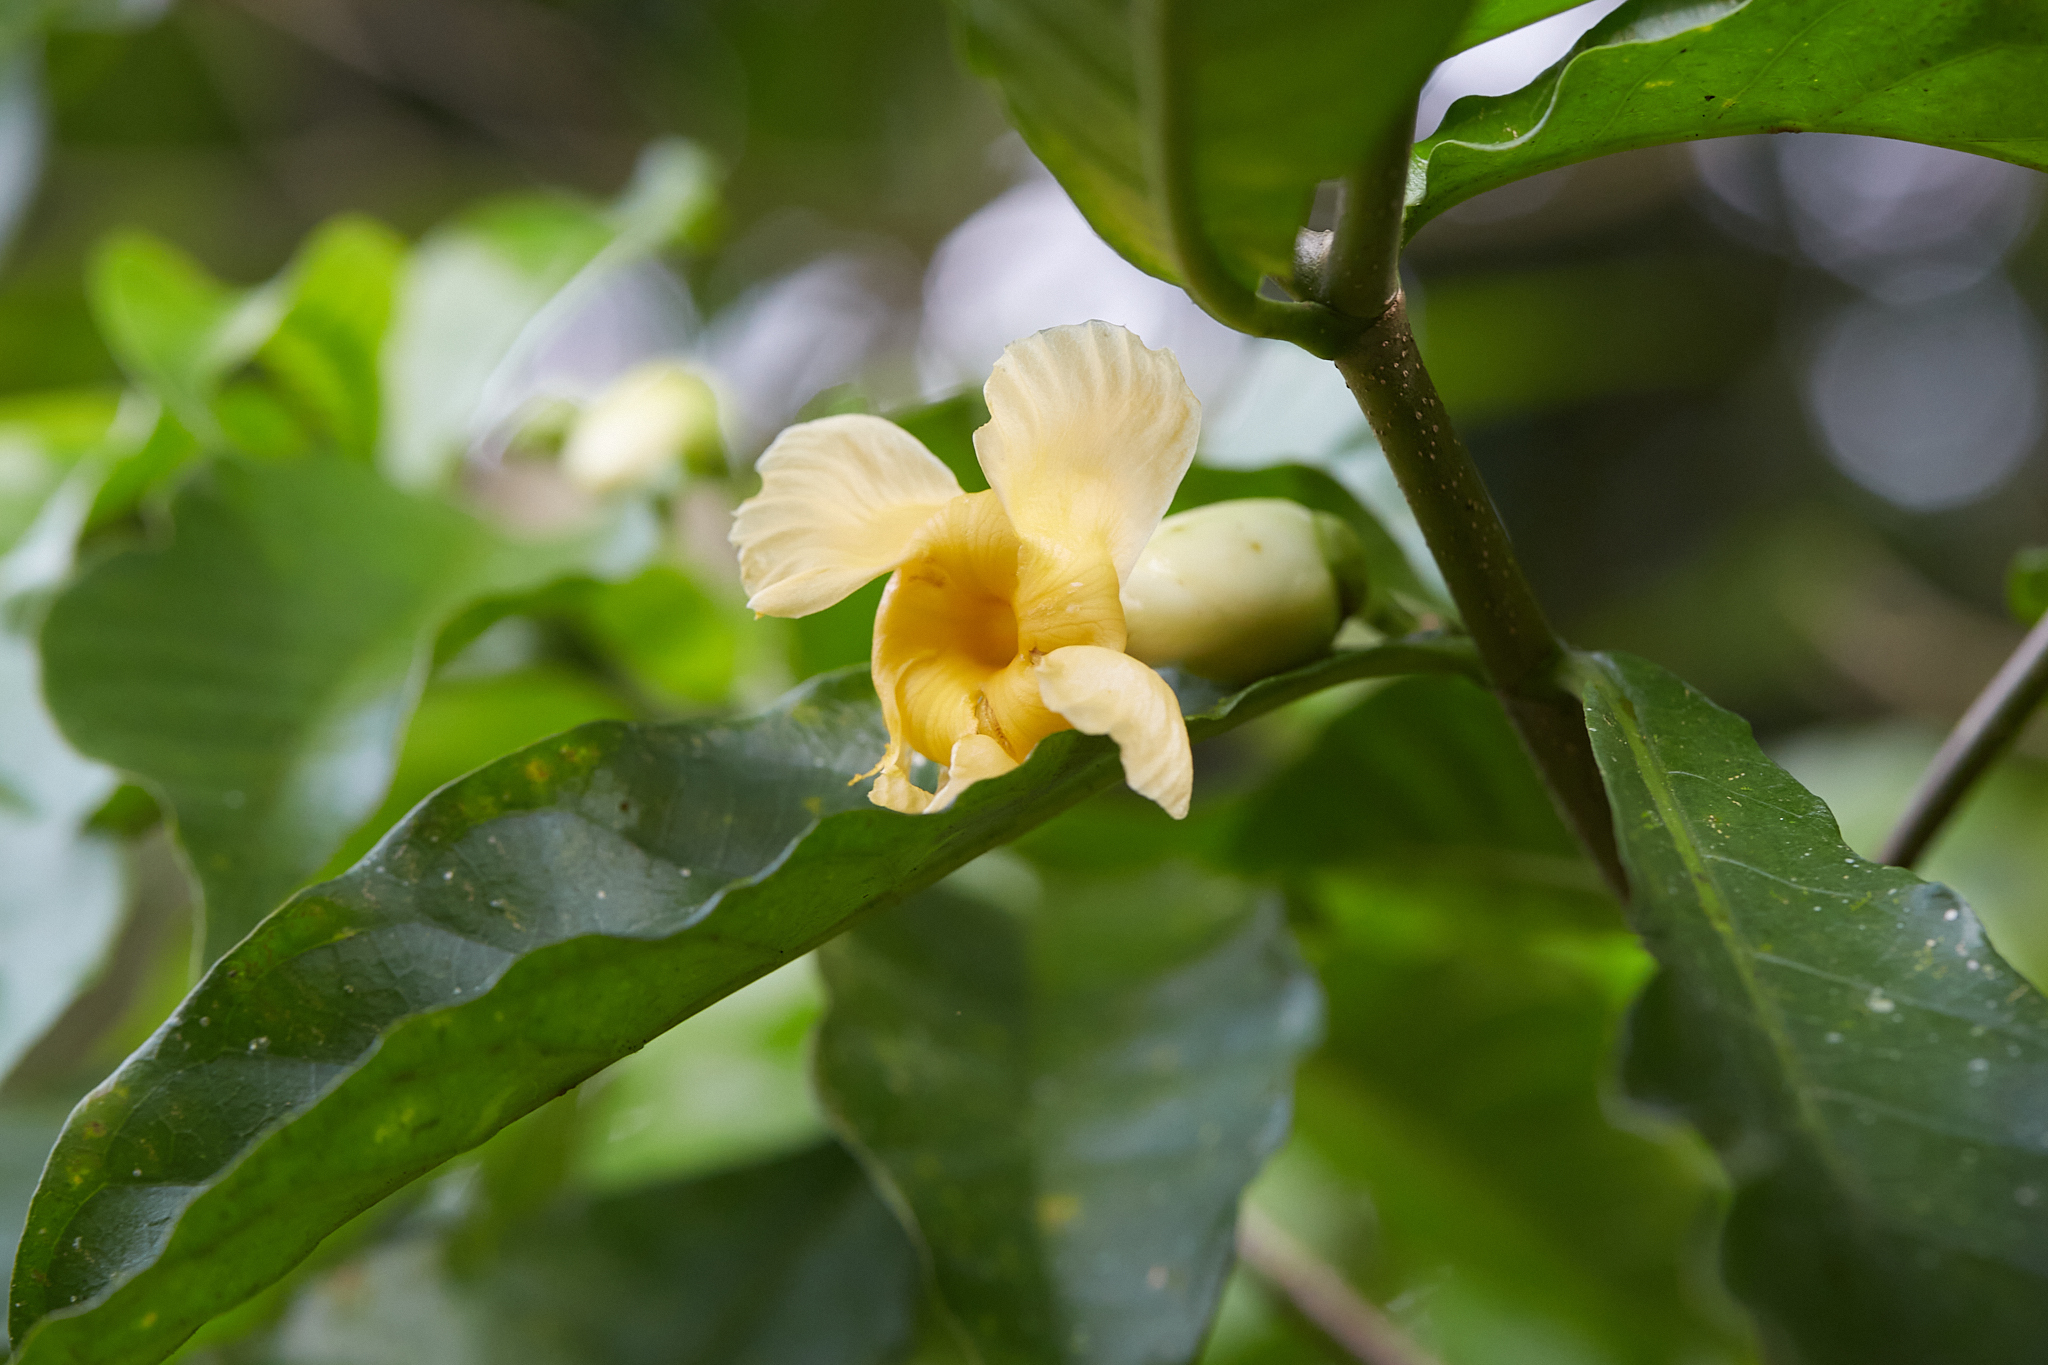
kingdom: Plantae
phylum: Tracheophyta
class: Magnoliopsida
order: Gentianales
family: Apocynaceae
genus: Tabernaemontana
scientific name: Tabernaemontana donnell-smithii
